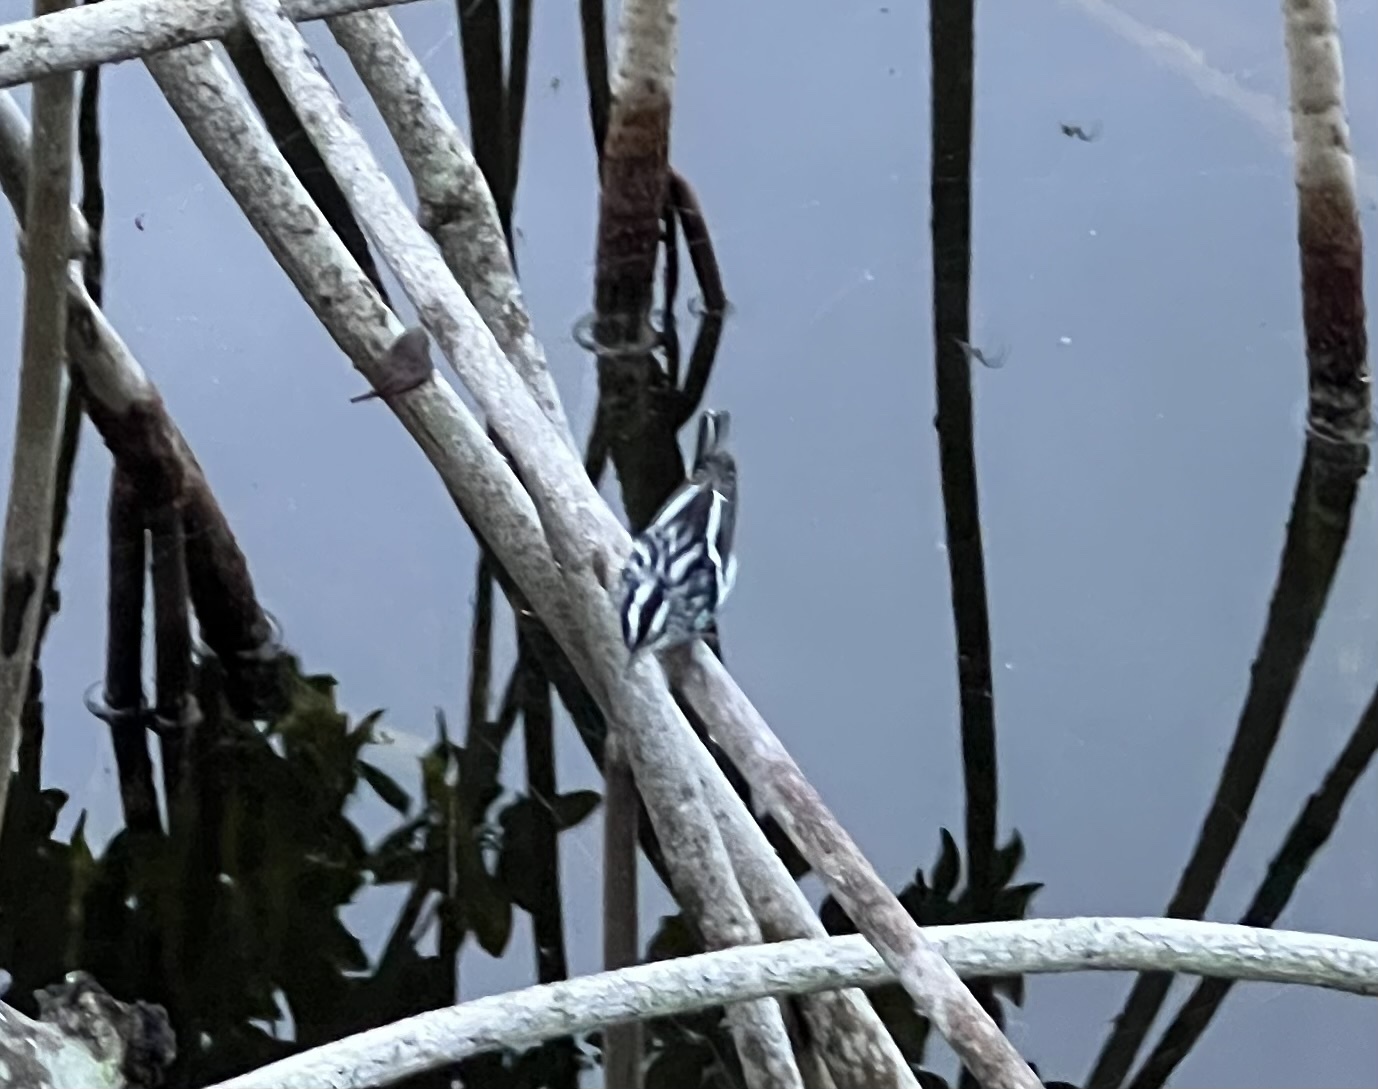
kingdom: Animalia
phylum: Chordata
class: Aves
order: Passeriformes
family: Parulidae
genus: Mniotilta
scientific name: Mniotilta varia
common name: Black-and-white warbler
